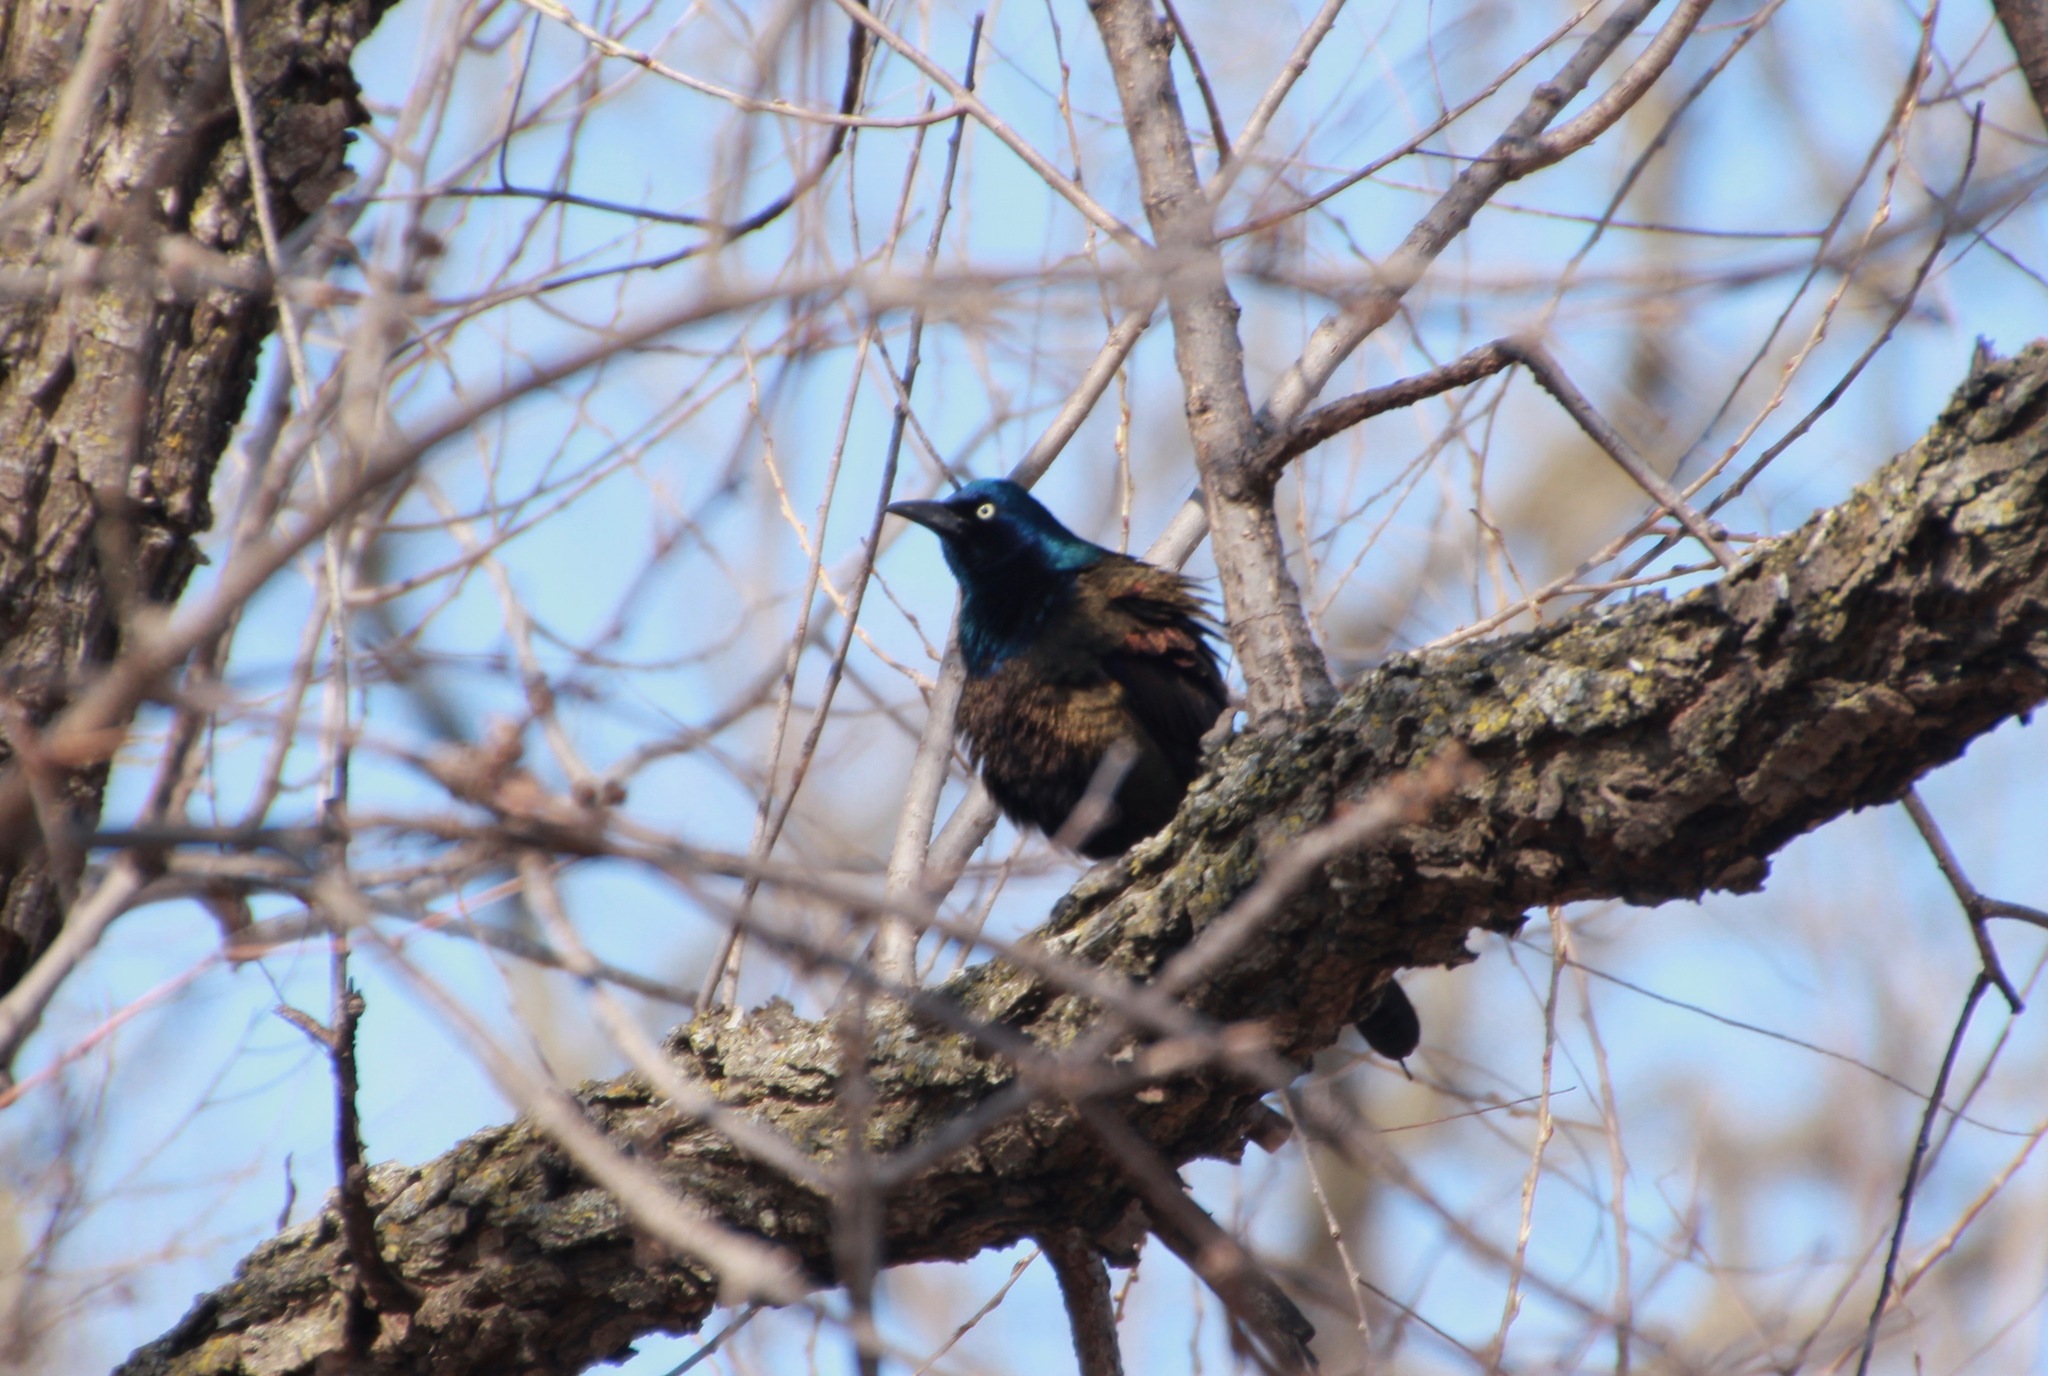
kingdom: Animalia
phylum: Chordata
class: Aves
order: Passeriformes
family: Icteridae
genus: Quiscalus
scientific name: Quiscalus quiscula
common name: Common grackle
